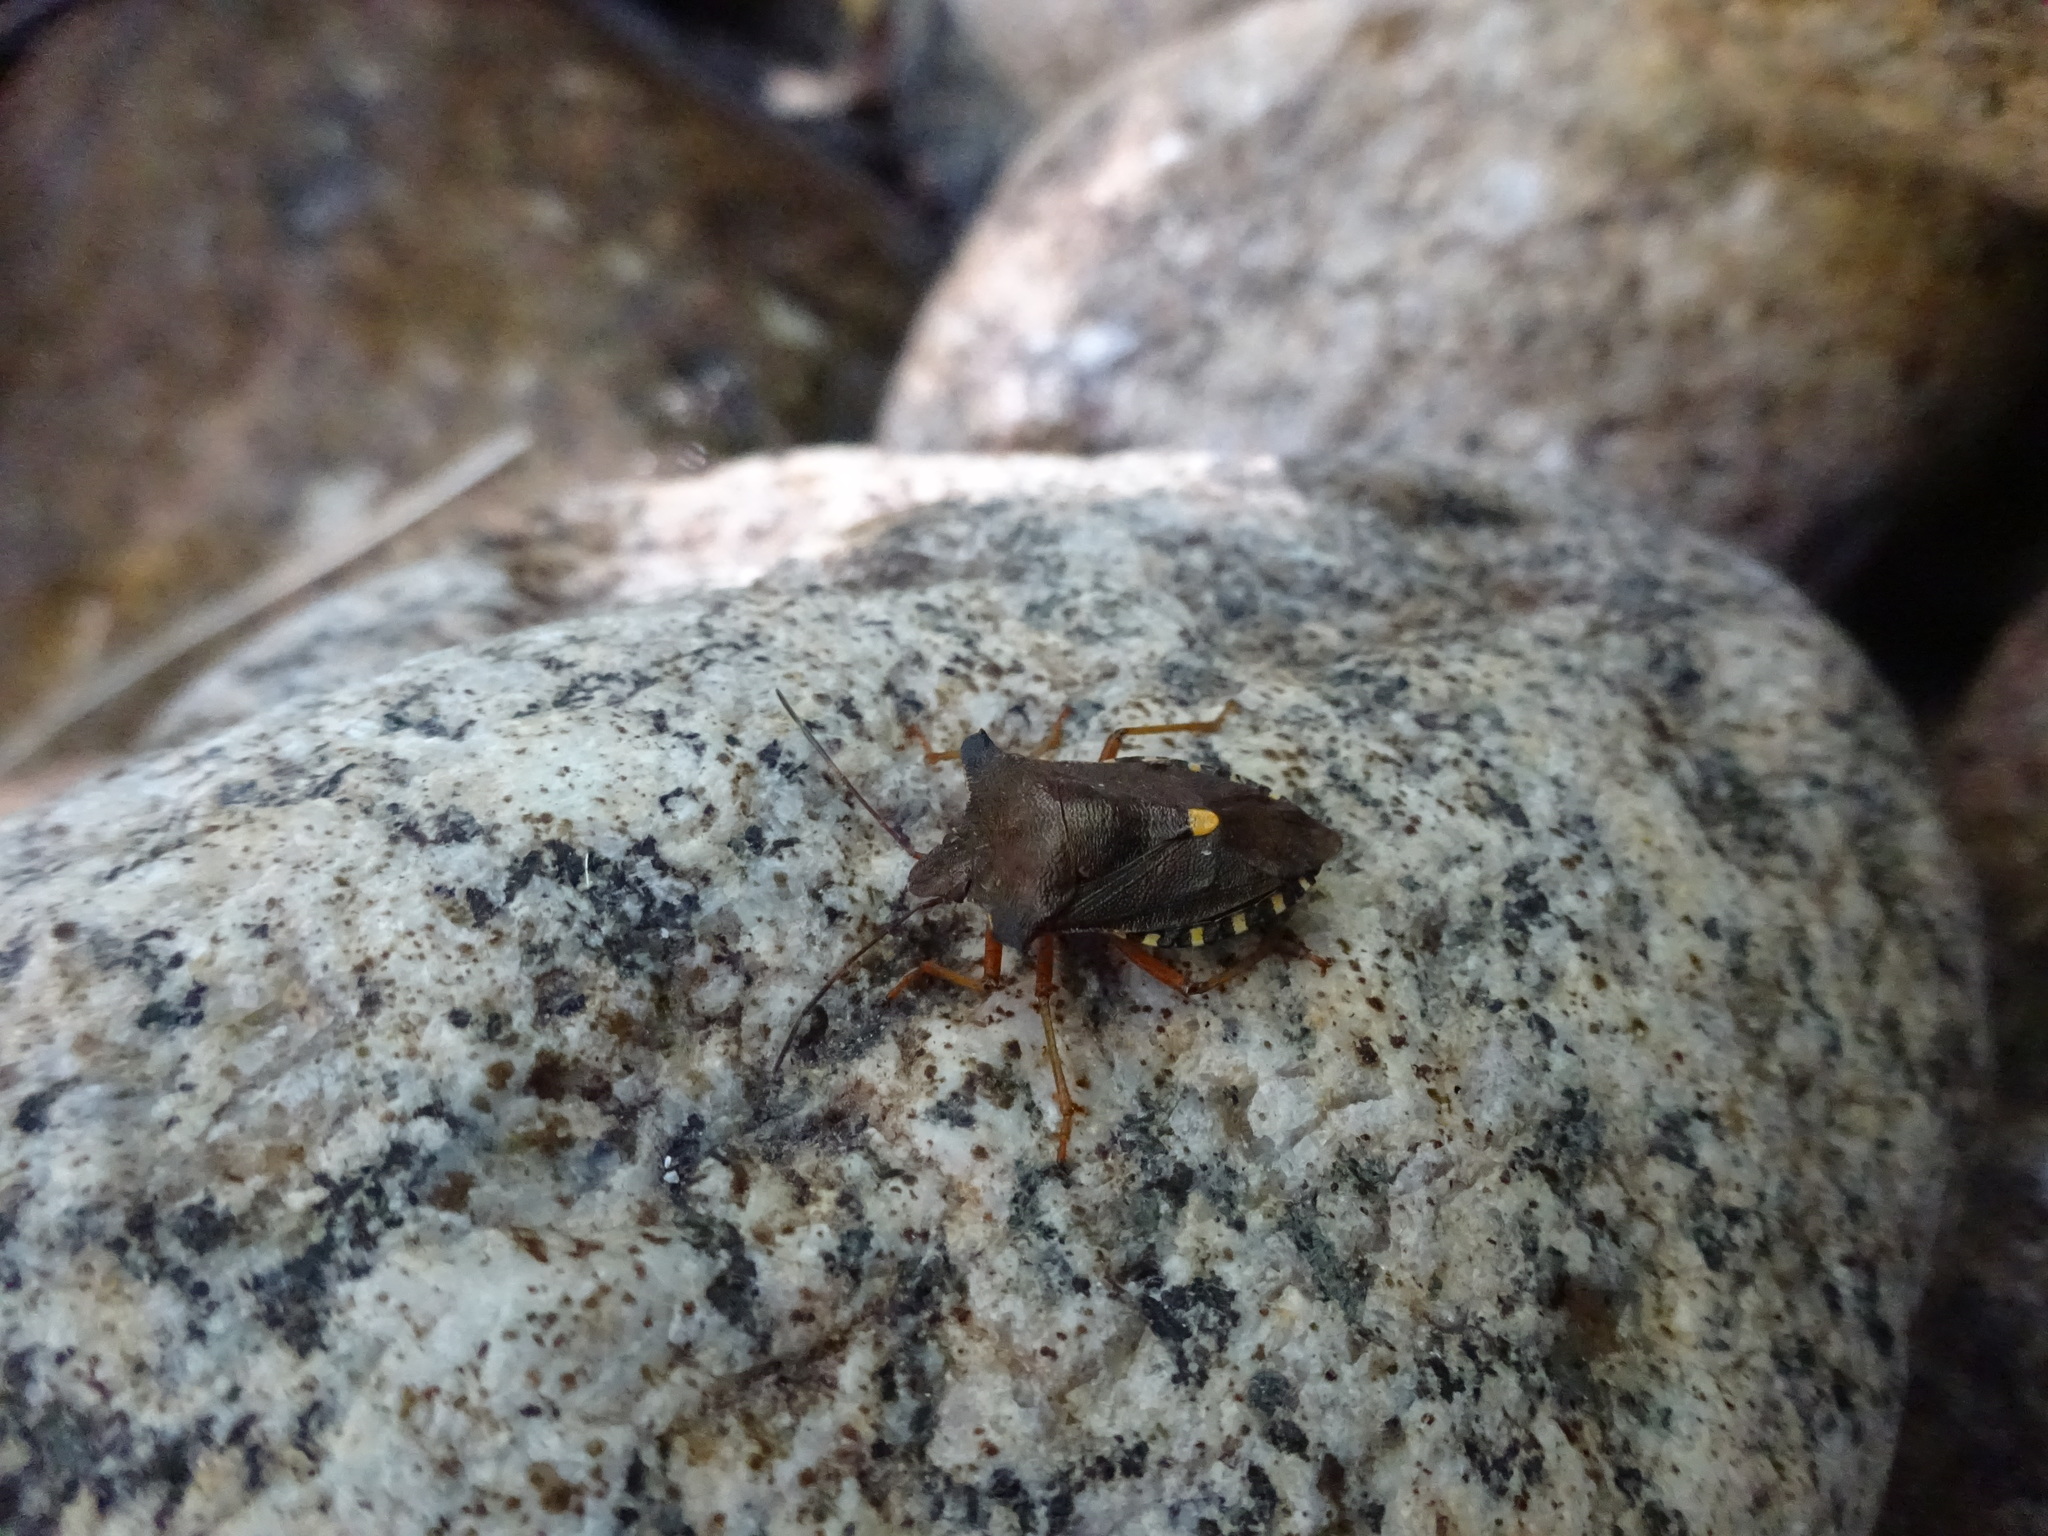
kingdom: Animalia
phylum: Arthropoda
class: Insecta
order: Hemiptera
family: Pentatomidae
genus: Pentatoma
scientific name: Pentatoma rufipes
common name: Forest bug
